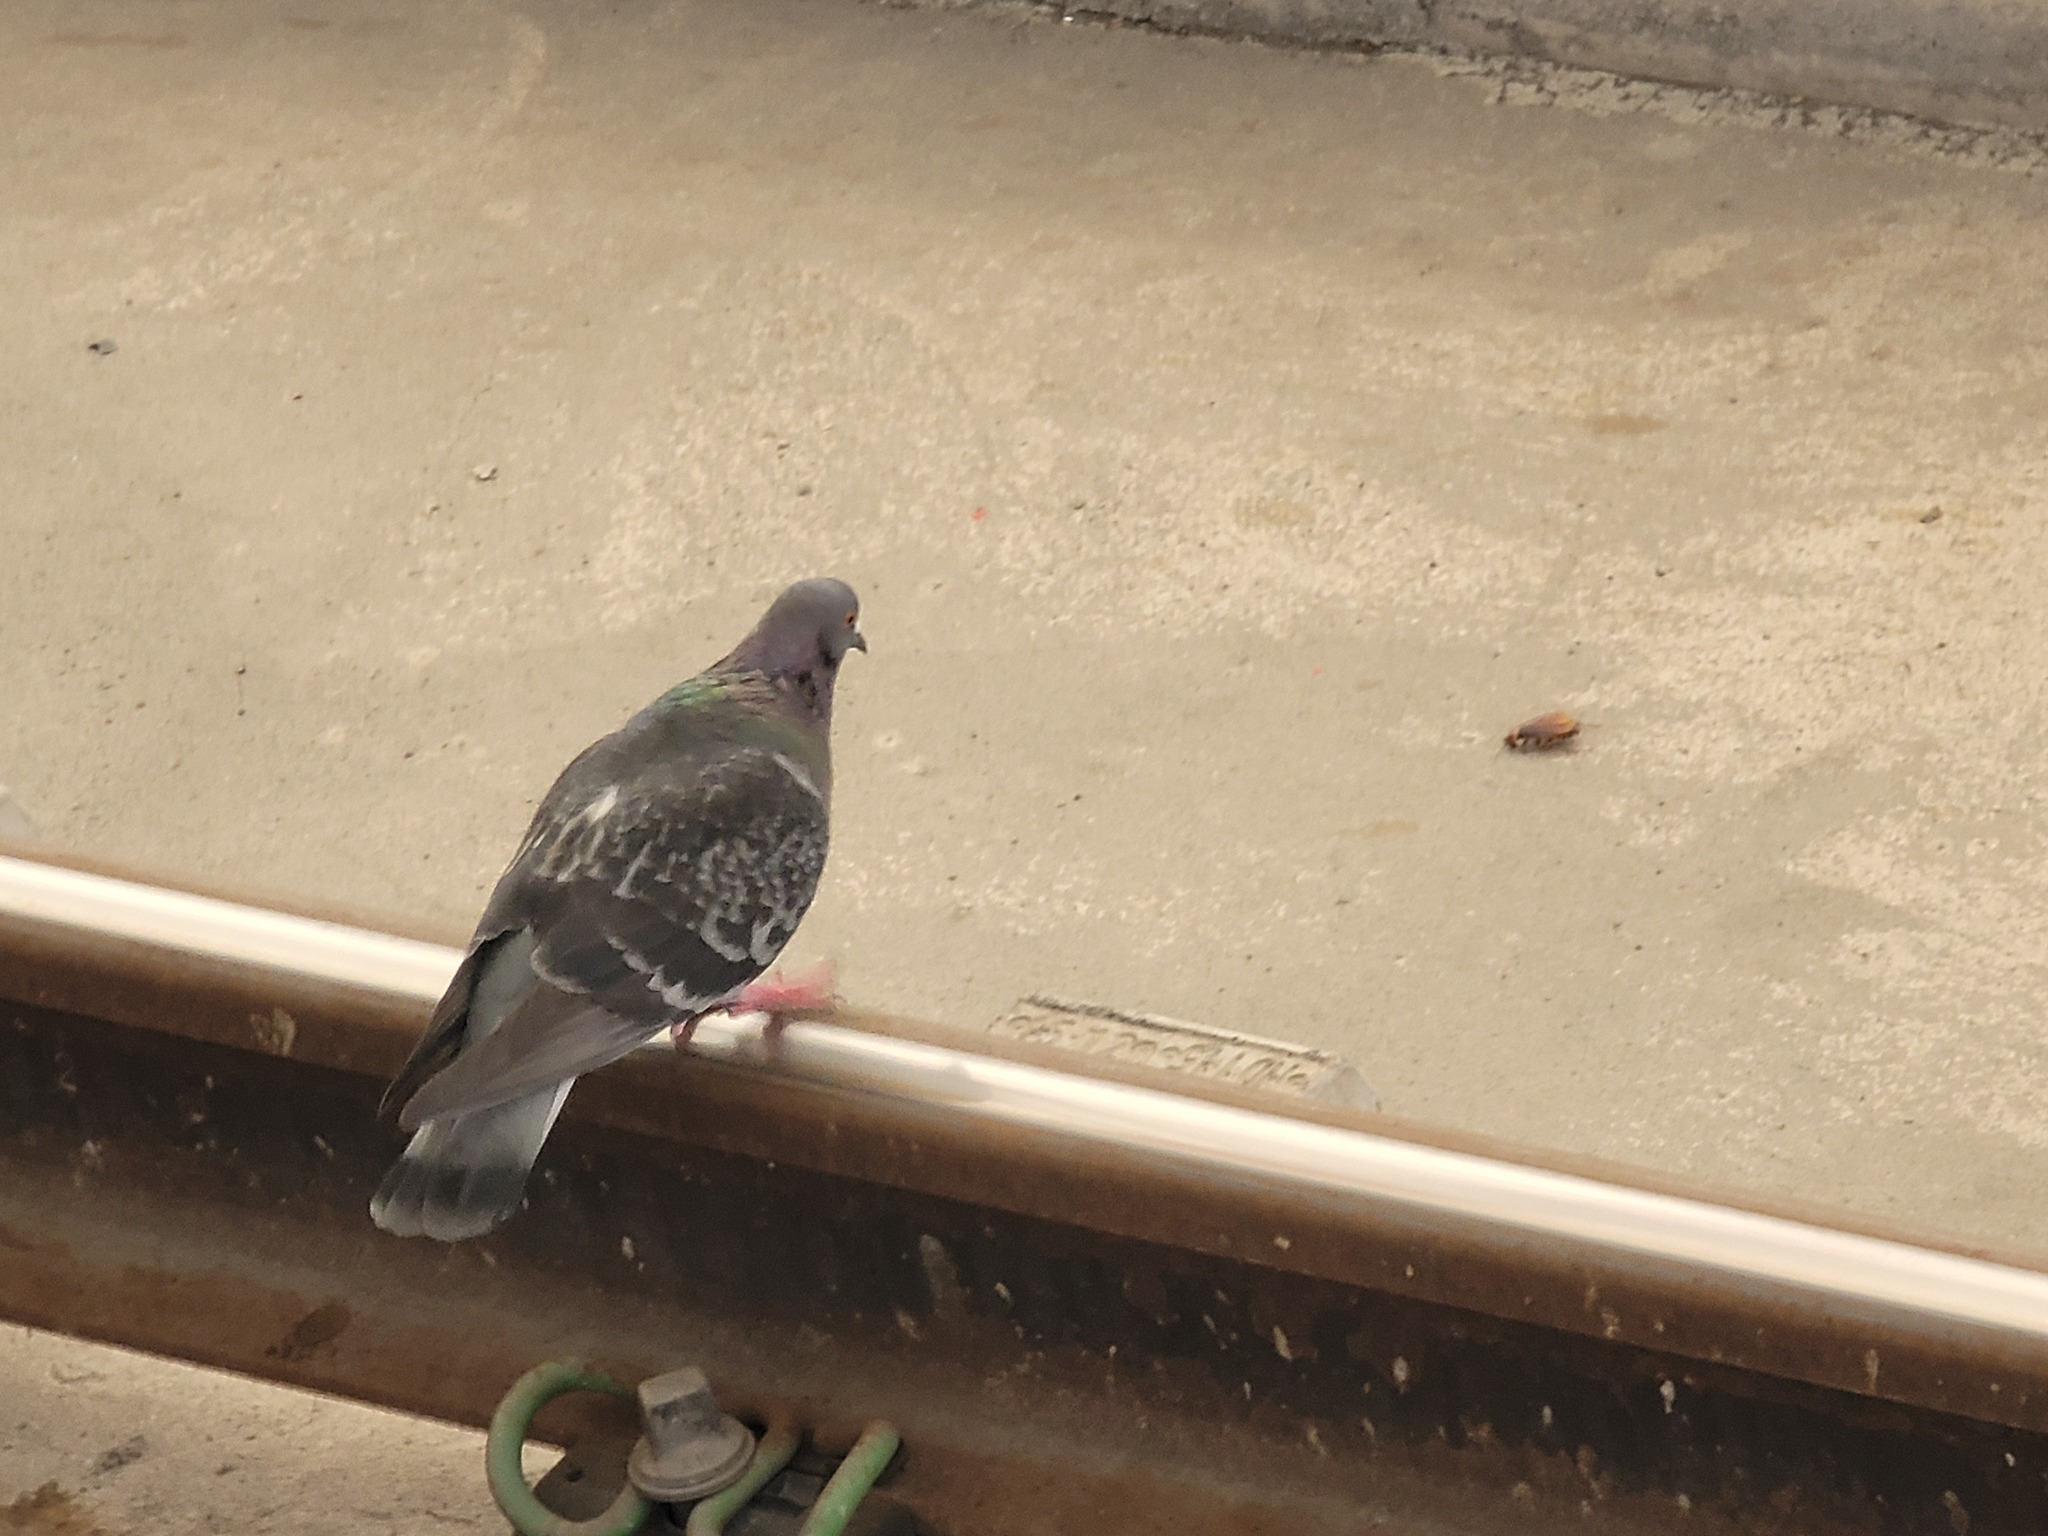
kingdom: Animalia
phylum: Chordata
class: Aves
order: Columbiformes
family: Columbidae
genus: Columba
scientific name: Columba livia
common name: Rock pigeon
